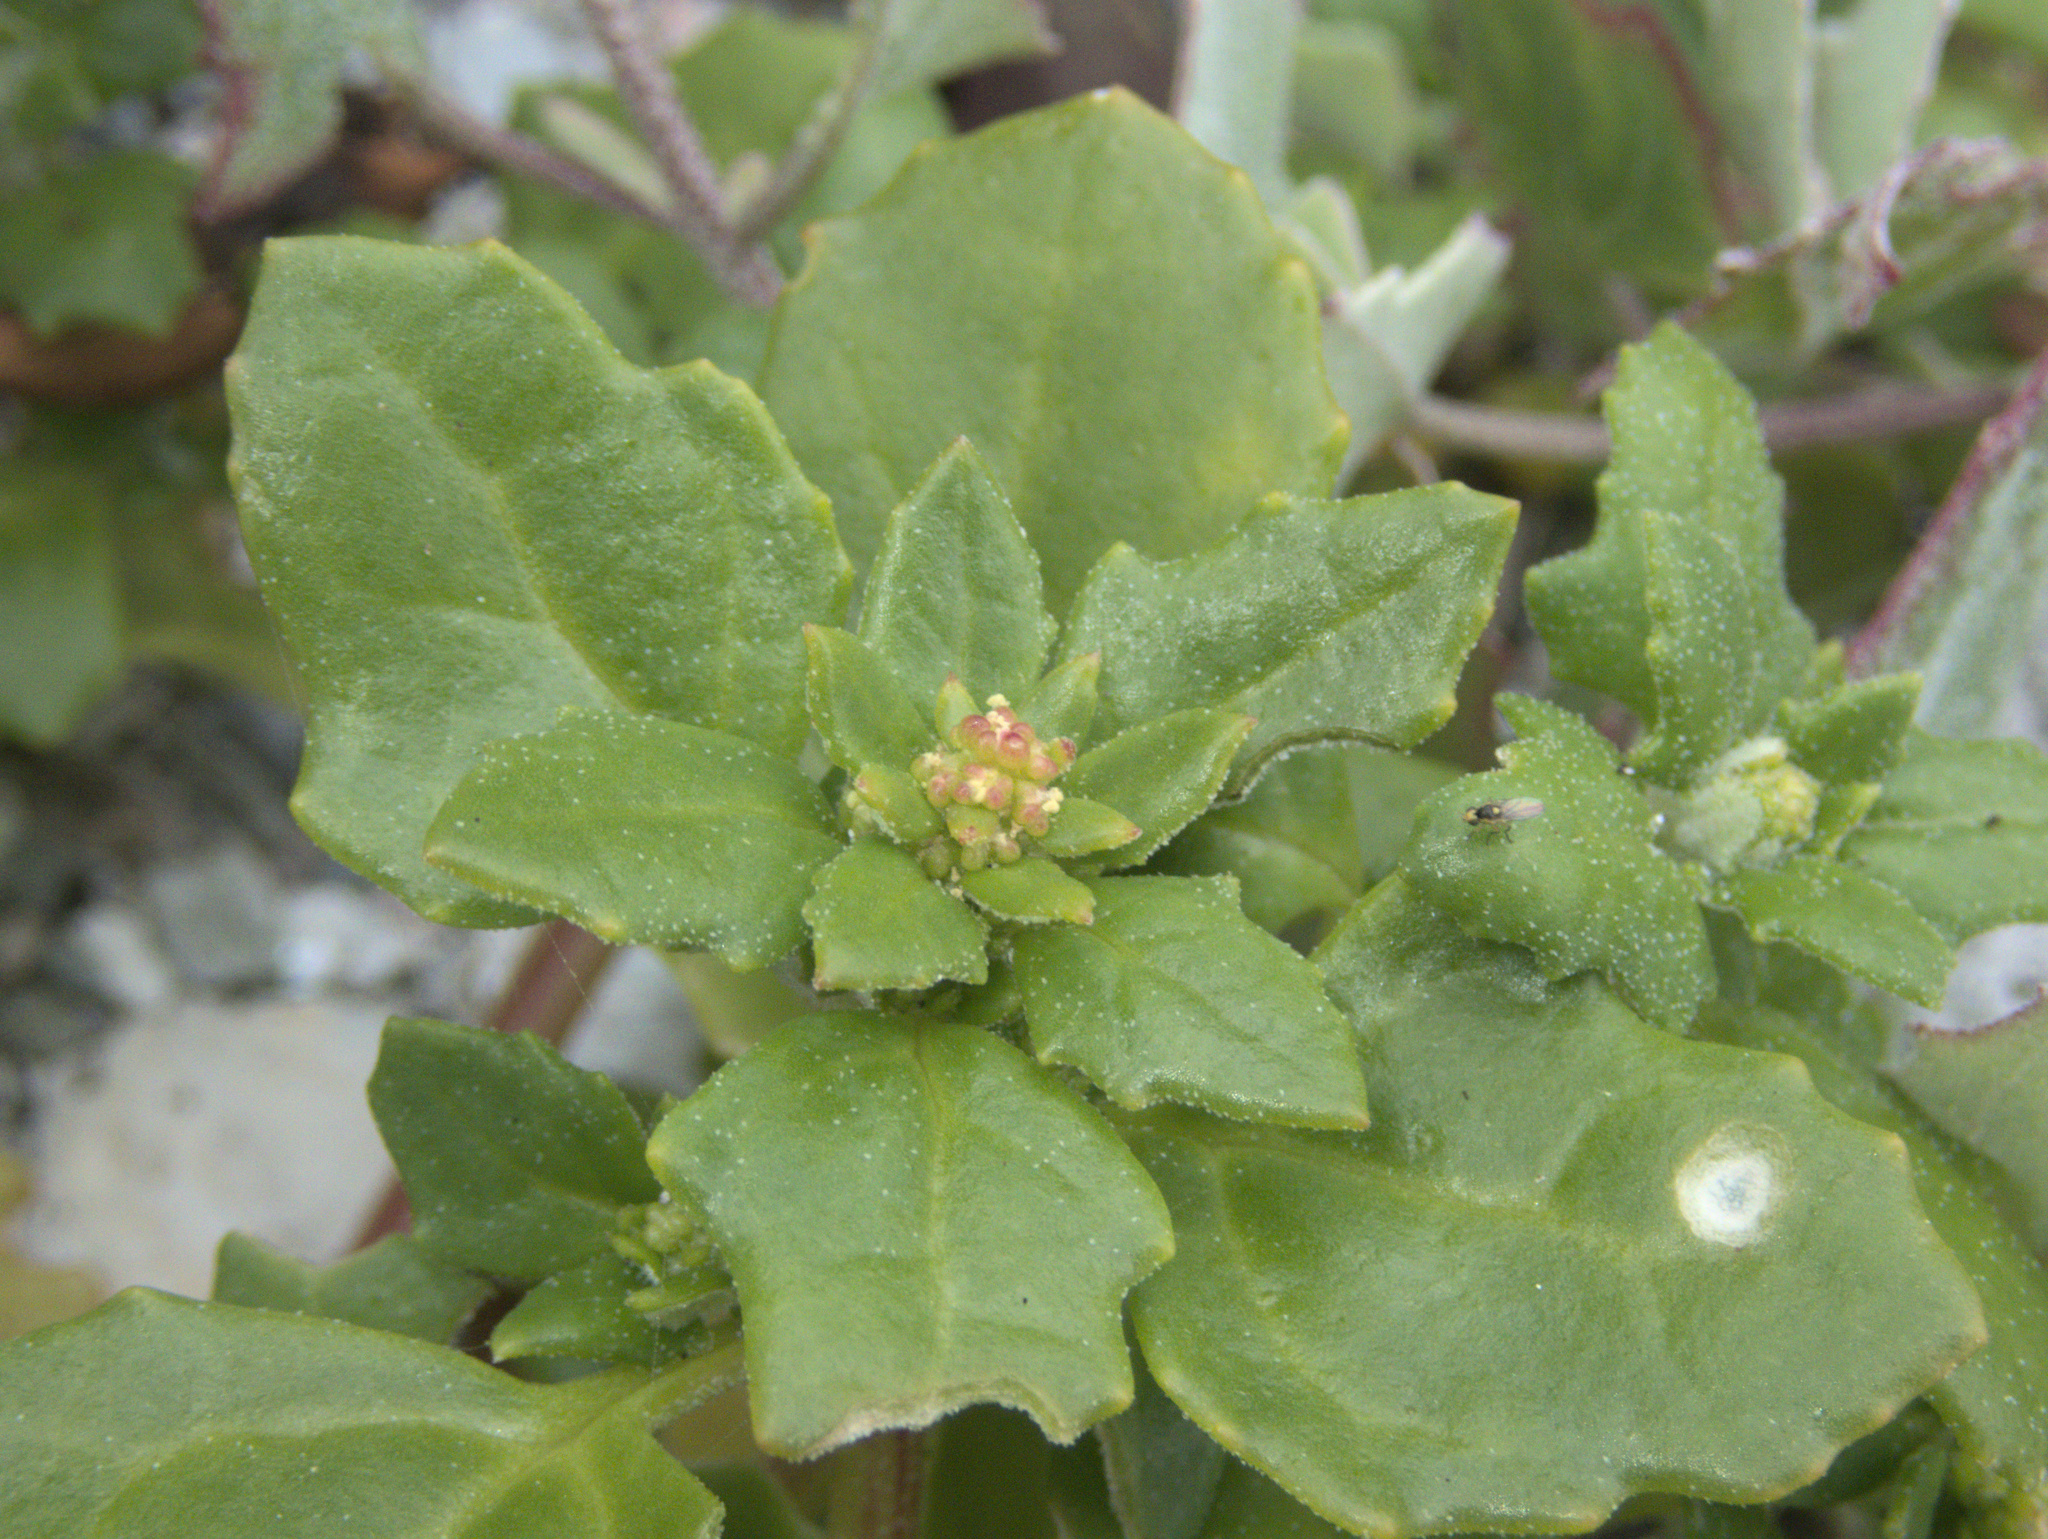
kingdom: Plantae
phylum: Tracheophyta
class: Magnoliopsida
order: Caryophyllales
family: Amaranthaceae
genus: Oxybasis
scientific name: Oxybasis ambigua
